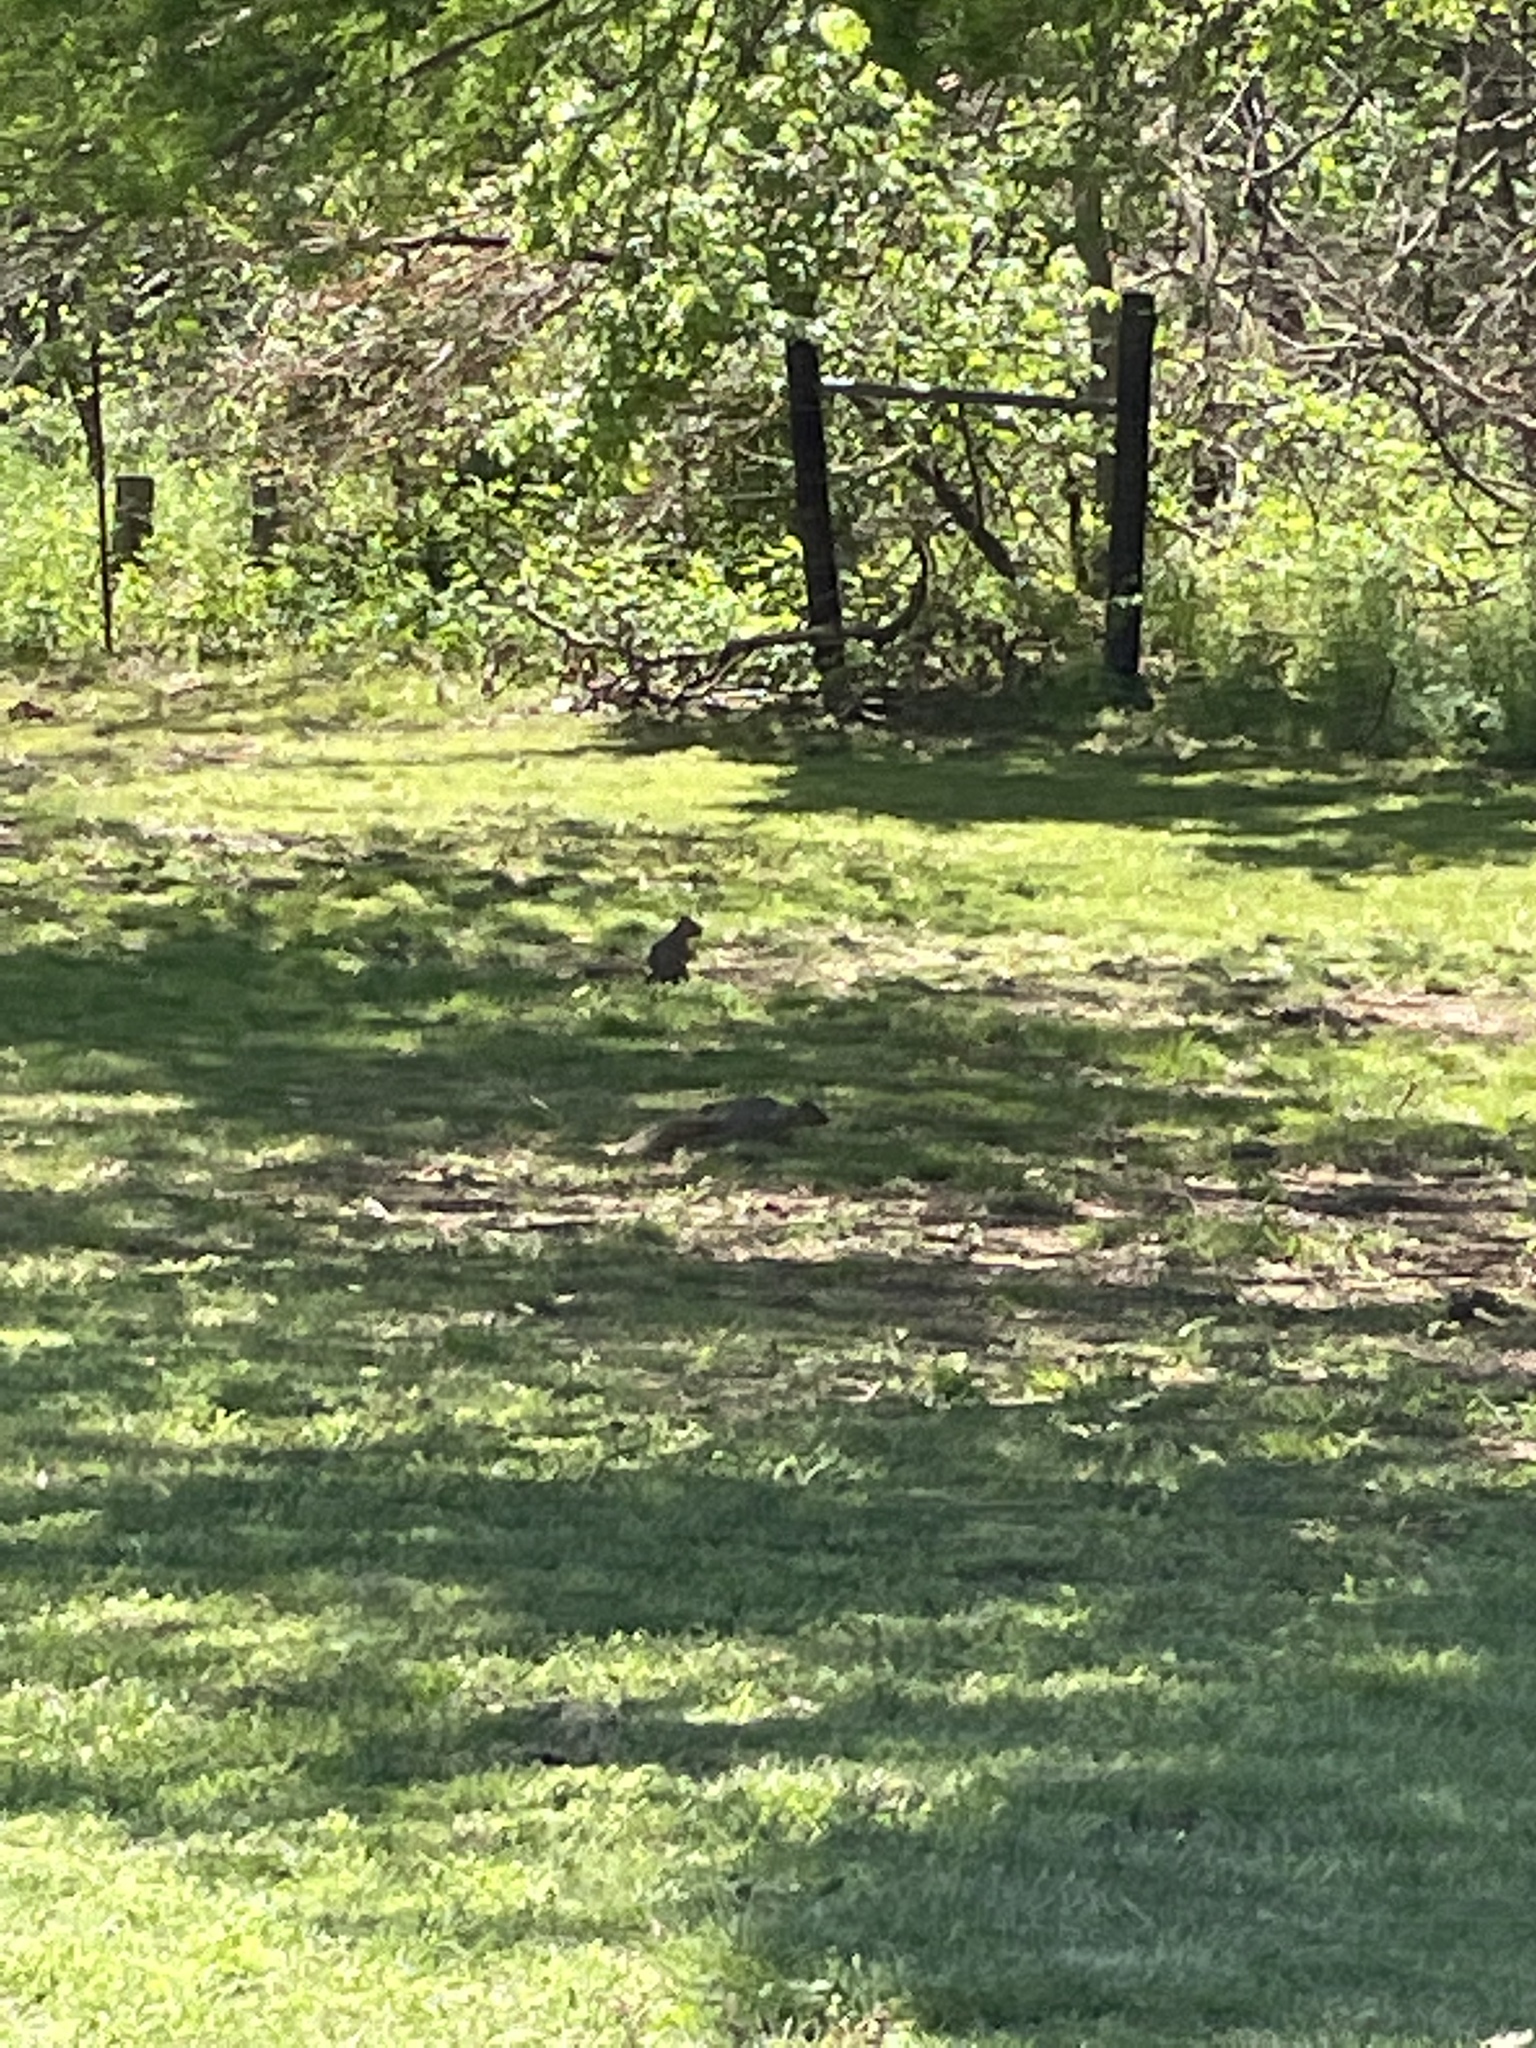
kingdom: Animalia
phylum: Chordata
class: Mammalia
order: Rodentia
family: Sciuridae
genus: Sciurus
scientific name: Sciurus niger
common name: Fox squirrel
